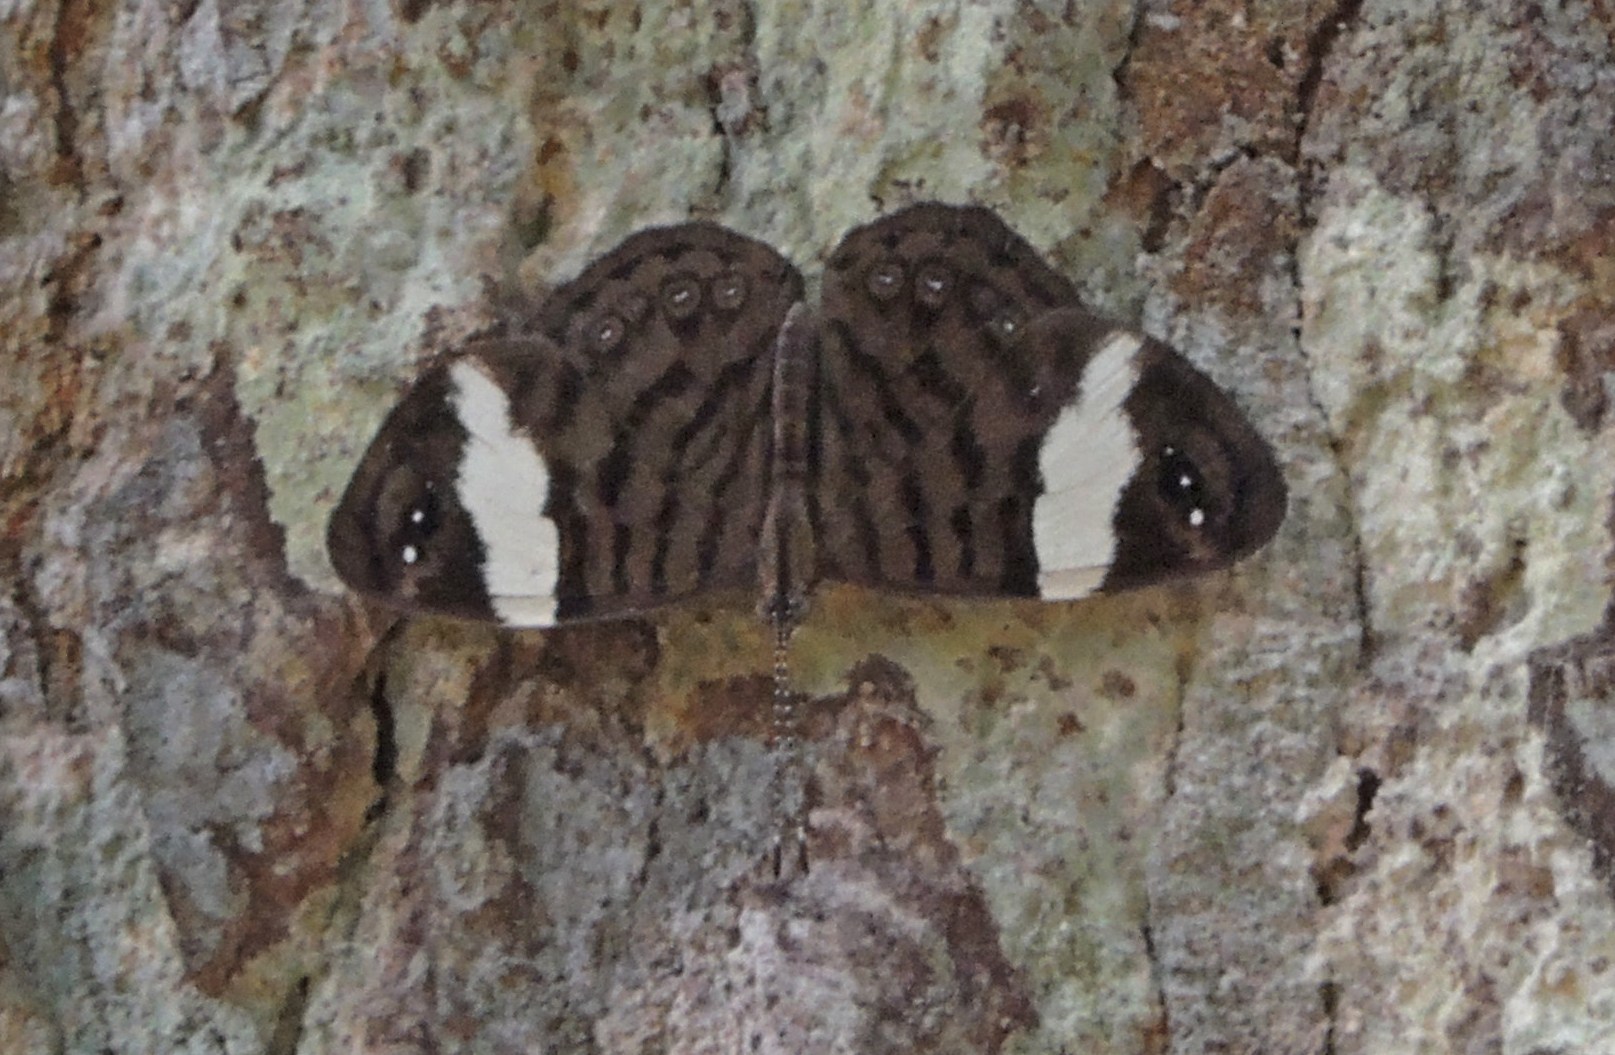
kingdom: Animalia
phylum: Arthropoda
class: Insecta
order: Lepidoptera
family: Nymphalidae
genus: Ectima
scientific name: Ectima thecla
